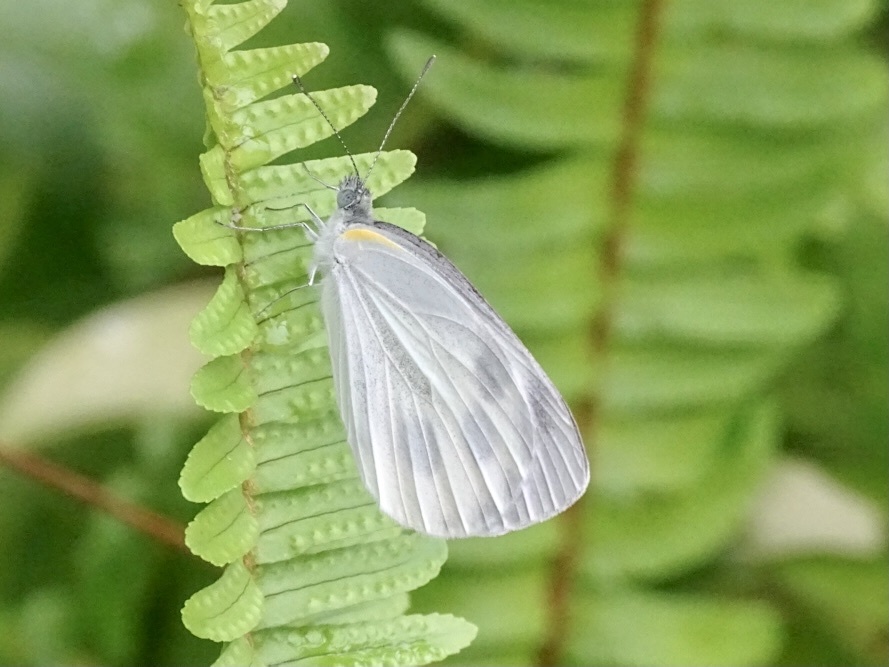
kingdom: Animalia
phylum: Arthropoda
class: Insecta
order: Lepidoptera
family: Pieridae
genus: Pieris
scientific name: Pieris canidia
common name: Indian cabbage white
